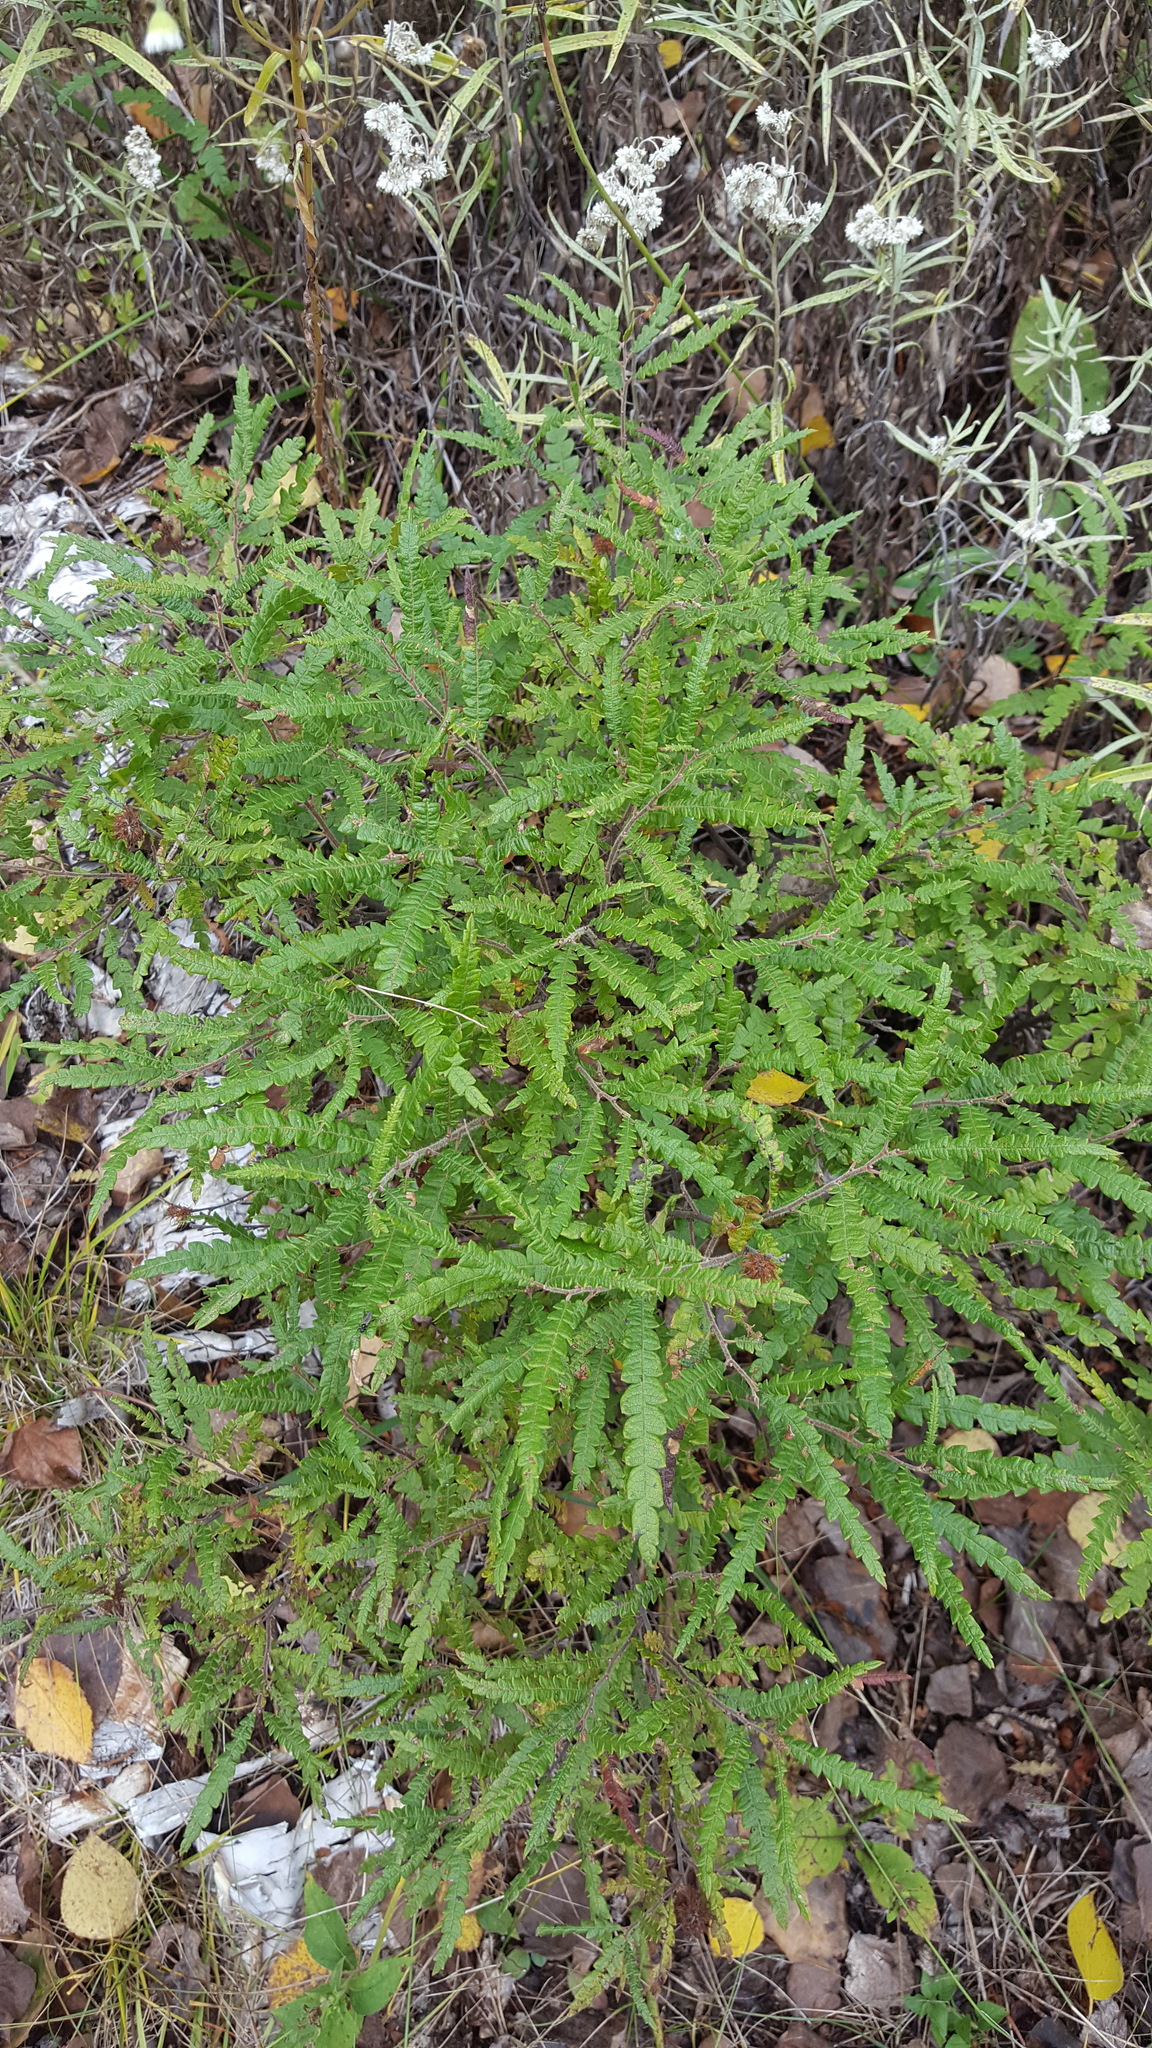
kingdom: Plantae
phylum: Tracheophyta
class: Magnoliopsida
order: Fagales
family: Myricaceae
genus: Comptonia
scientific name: Comptonia peregrina
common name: Sweet-fern
